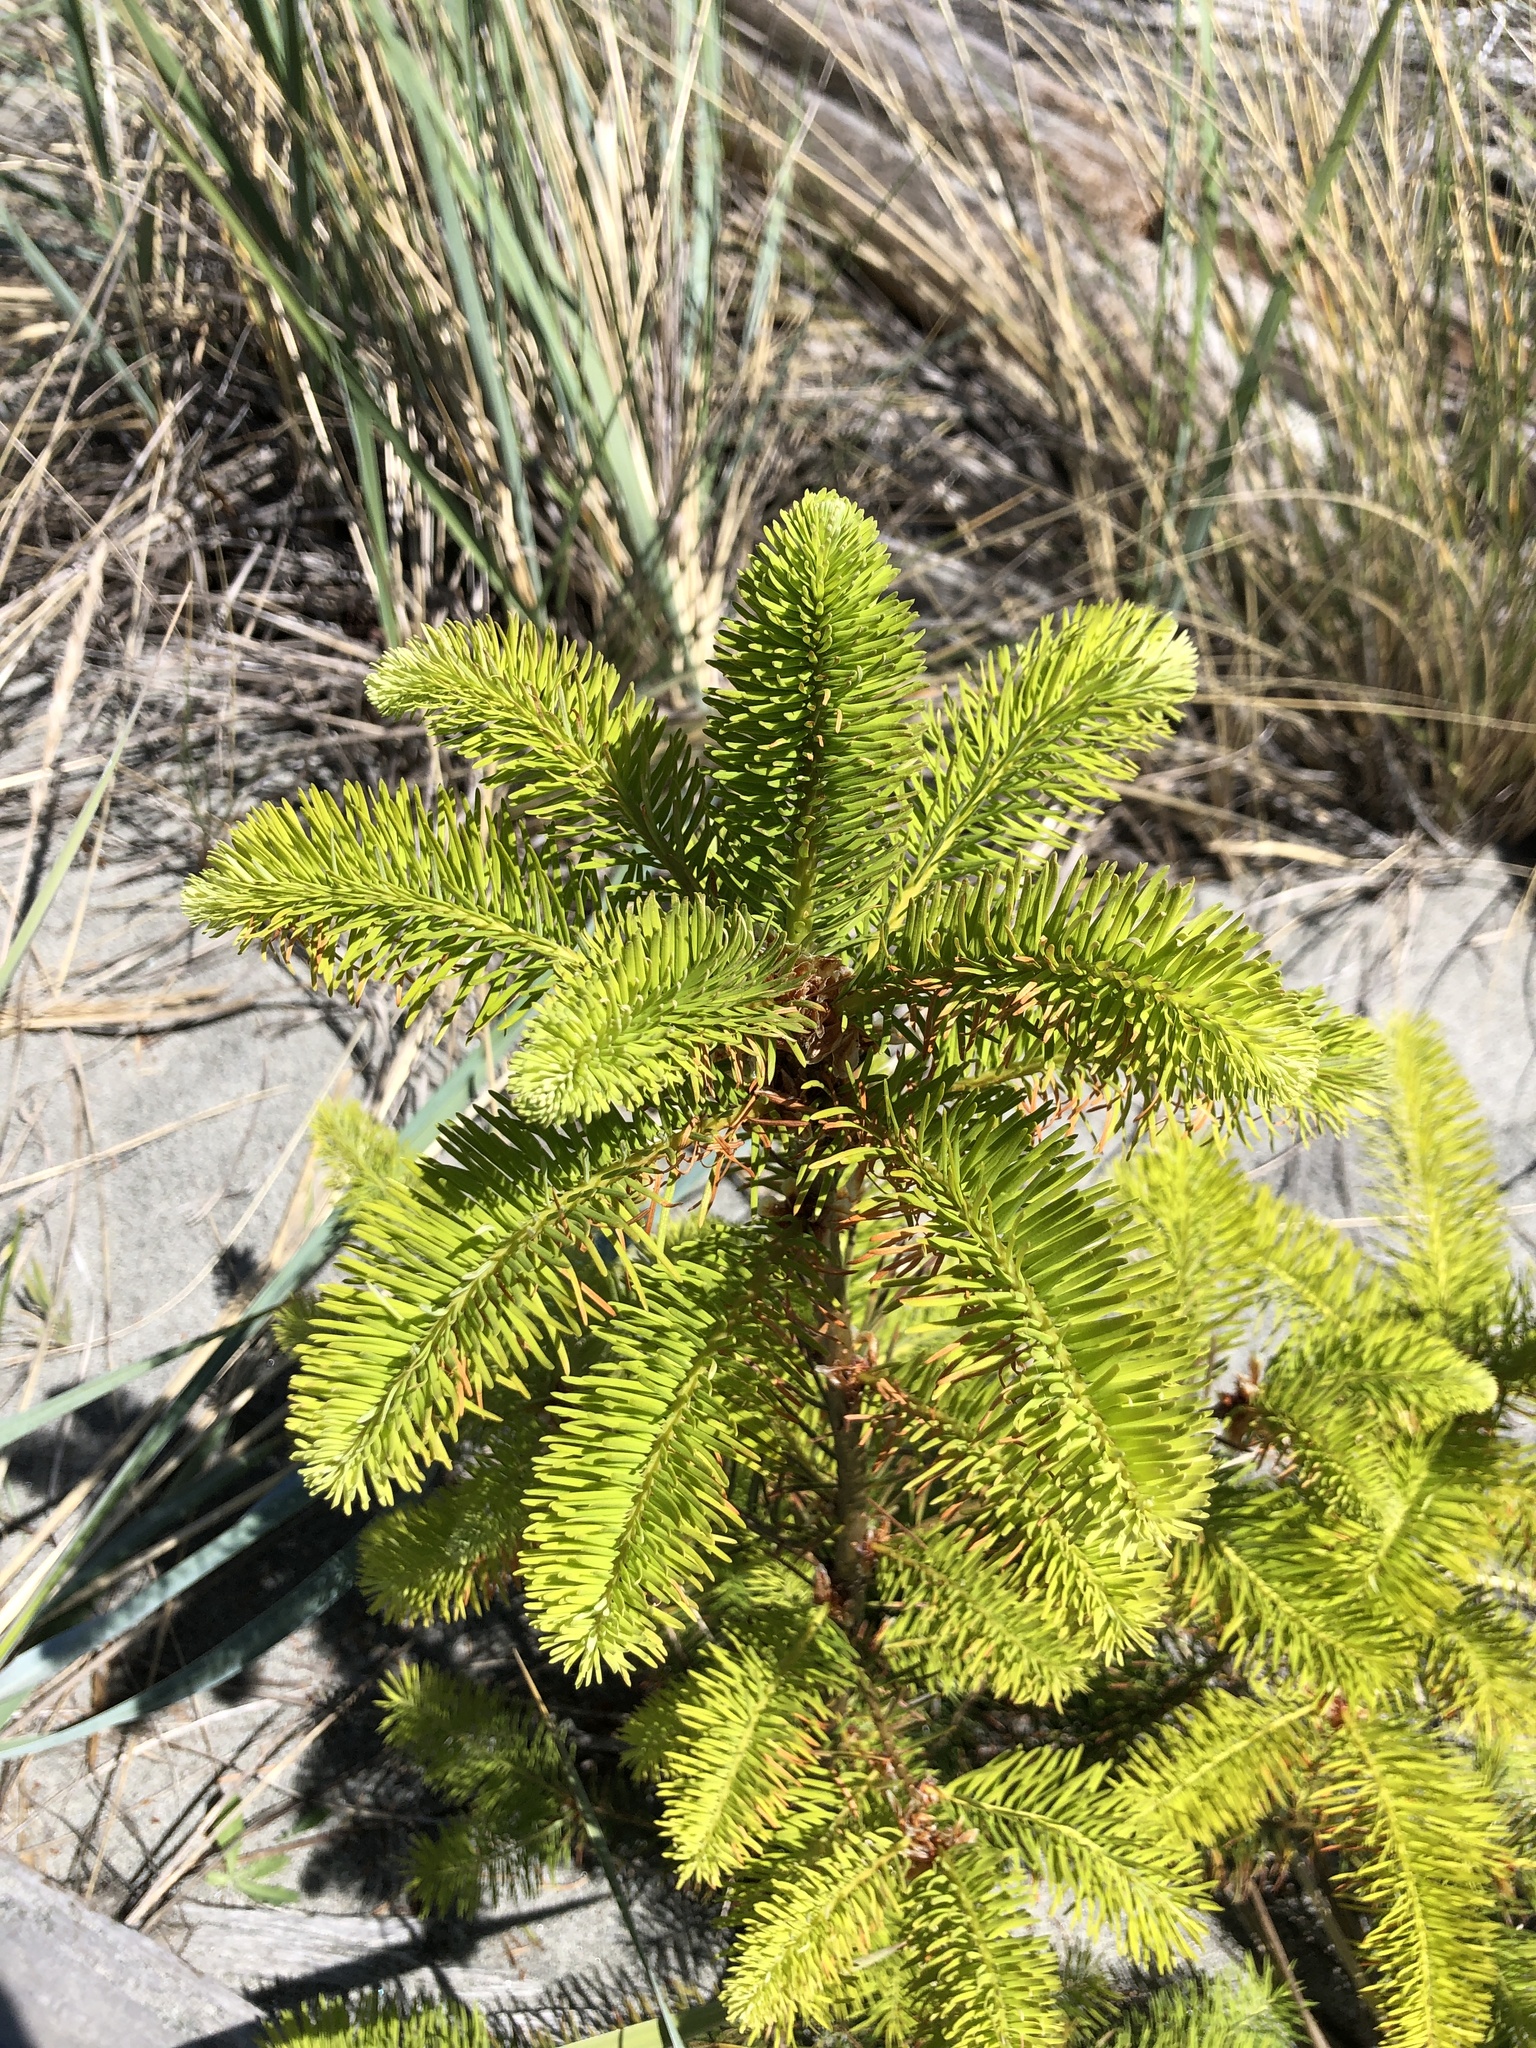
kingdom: Plantae
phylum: Tracheophyta
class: Pinopsida
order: Pinales
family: Pinaceae
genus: Pseudotsuga
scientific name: Pseudotsuga menziesii
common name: Douglas fir
